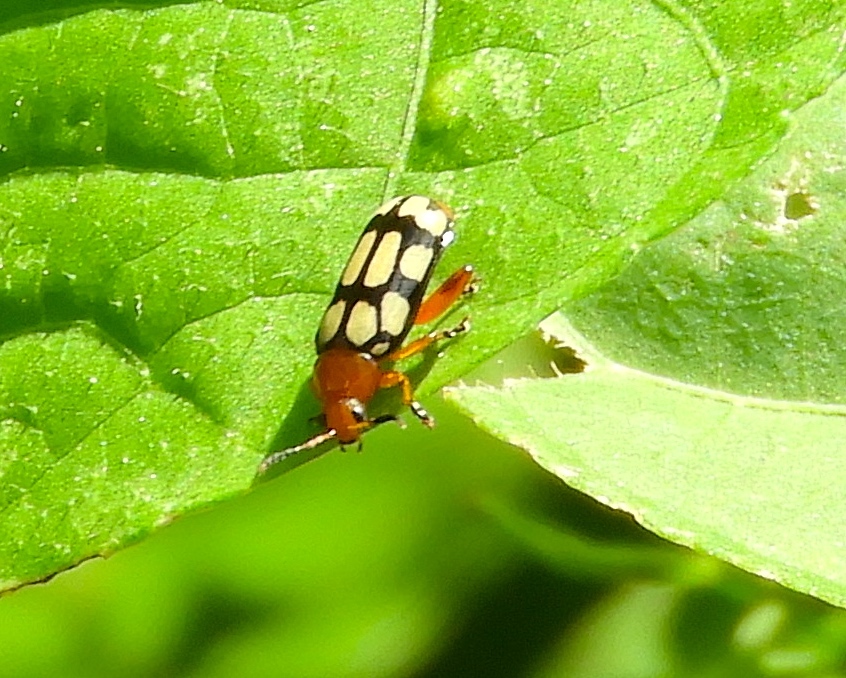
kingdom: Animalia
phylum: Arthropoda
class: Insecta
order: Coleoptera
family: Chrysomelidae
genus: Disonycha
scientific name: Disonycha
